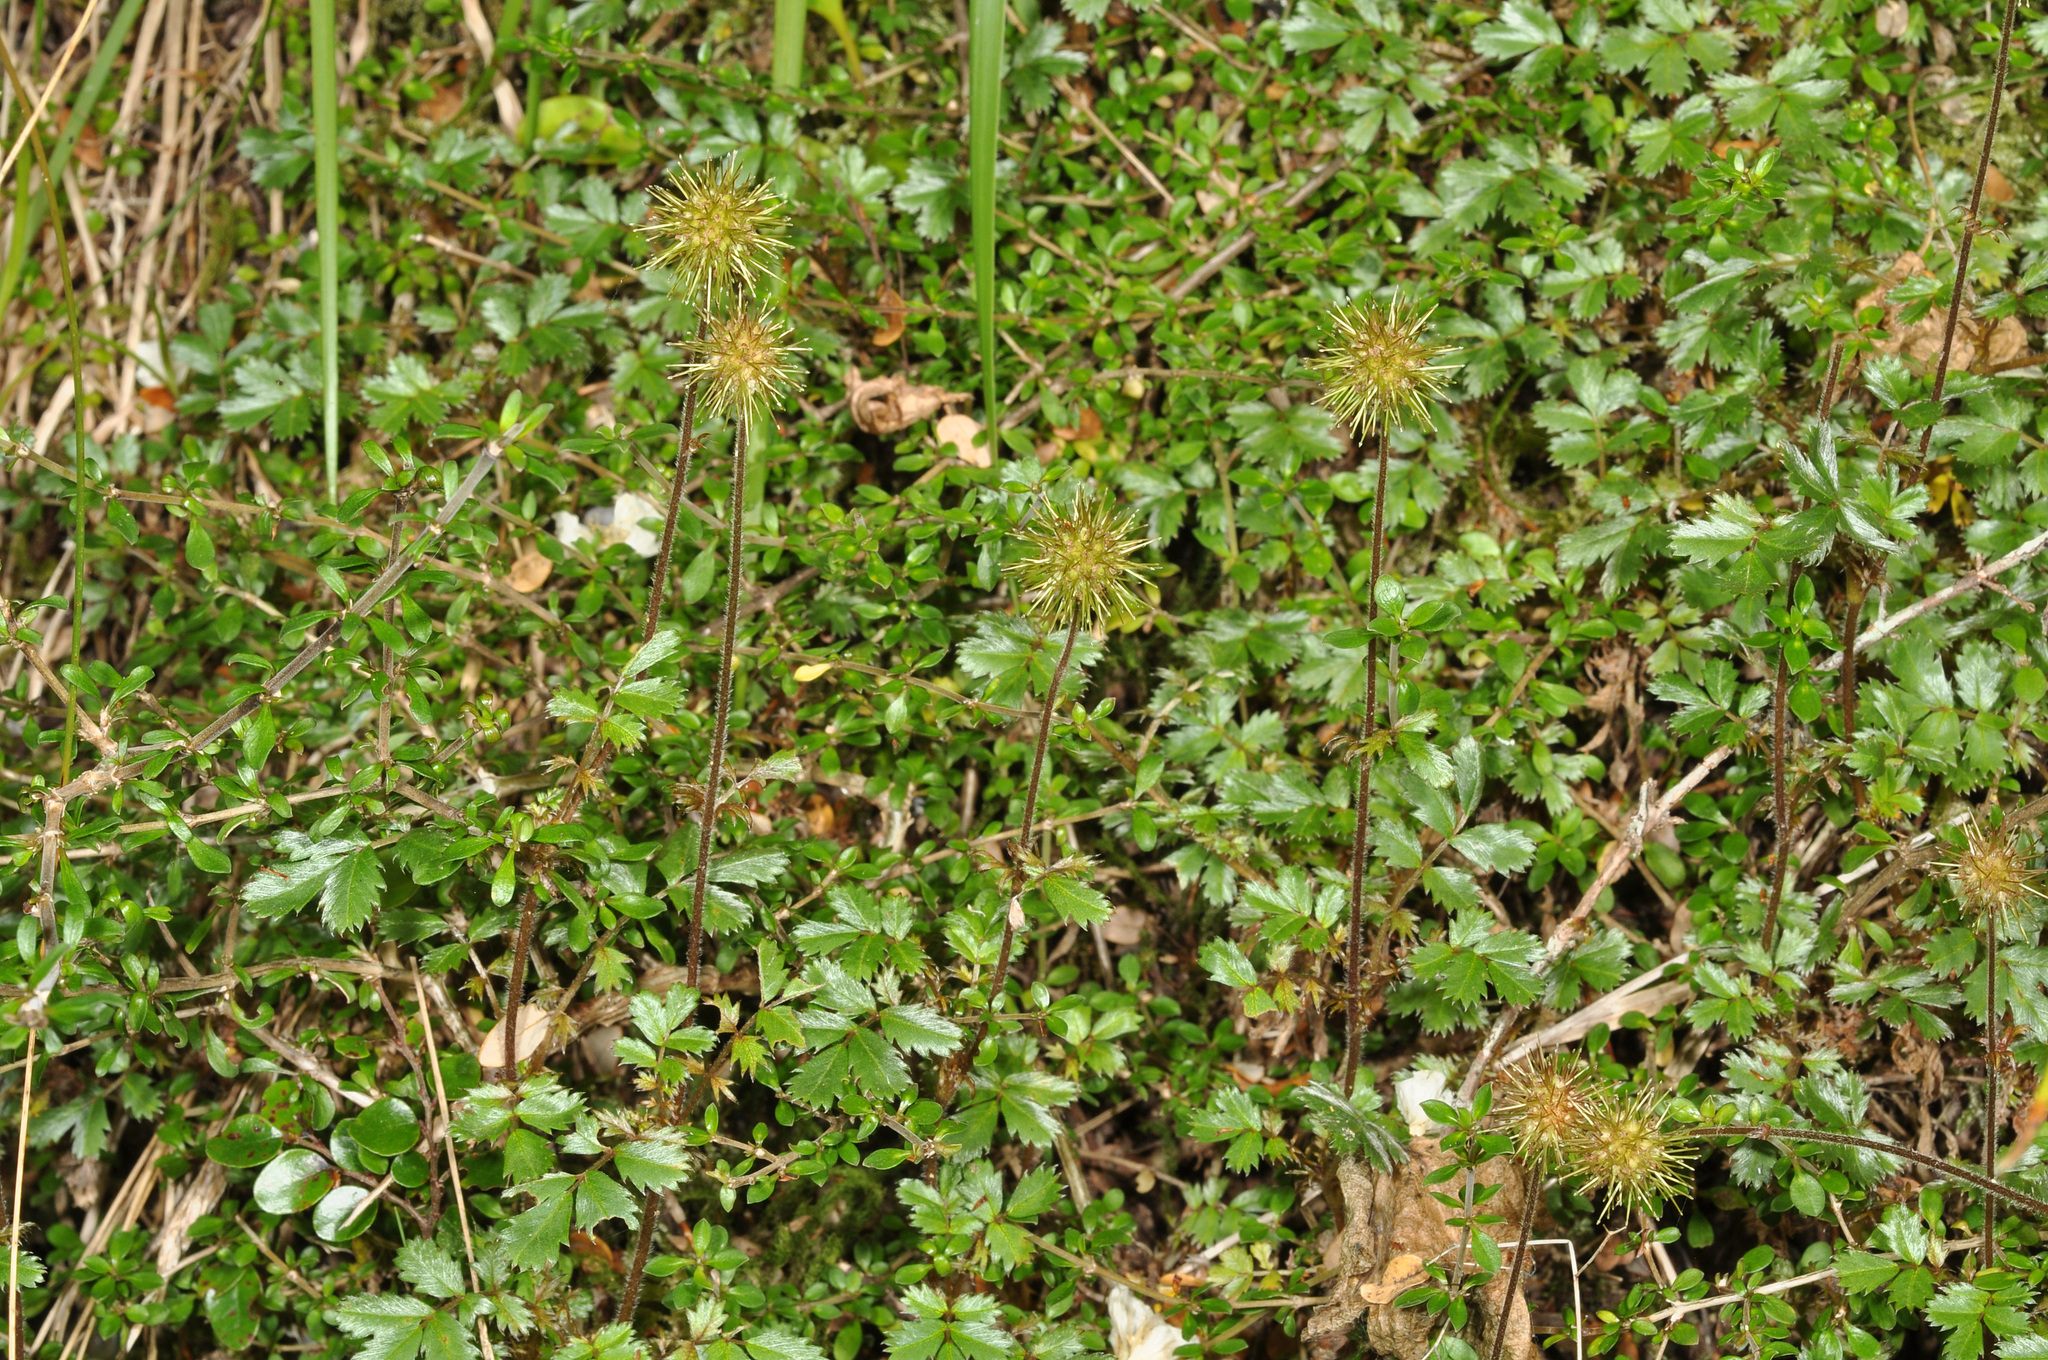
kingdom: Plantae
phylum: Tracheophyta
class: Magnoliopsida
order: Rosales
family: Rosaceae
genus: Acaena
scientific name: Acaena anserinifolia
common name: Bronze pirri-pirri-bur
